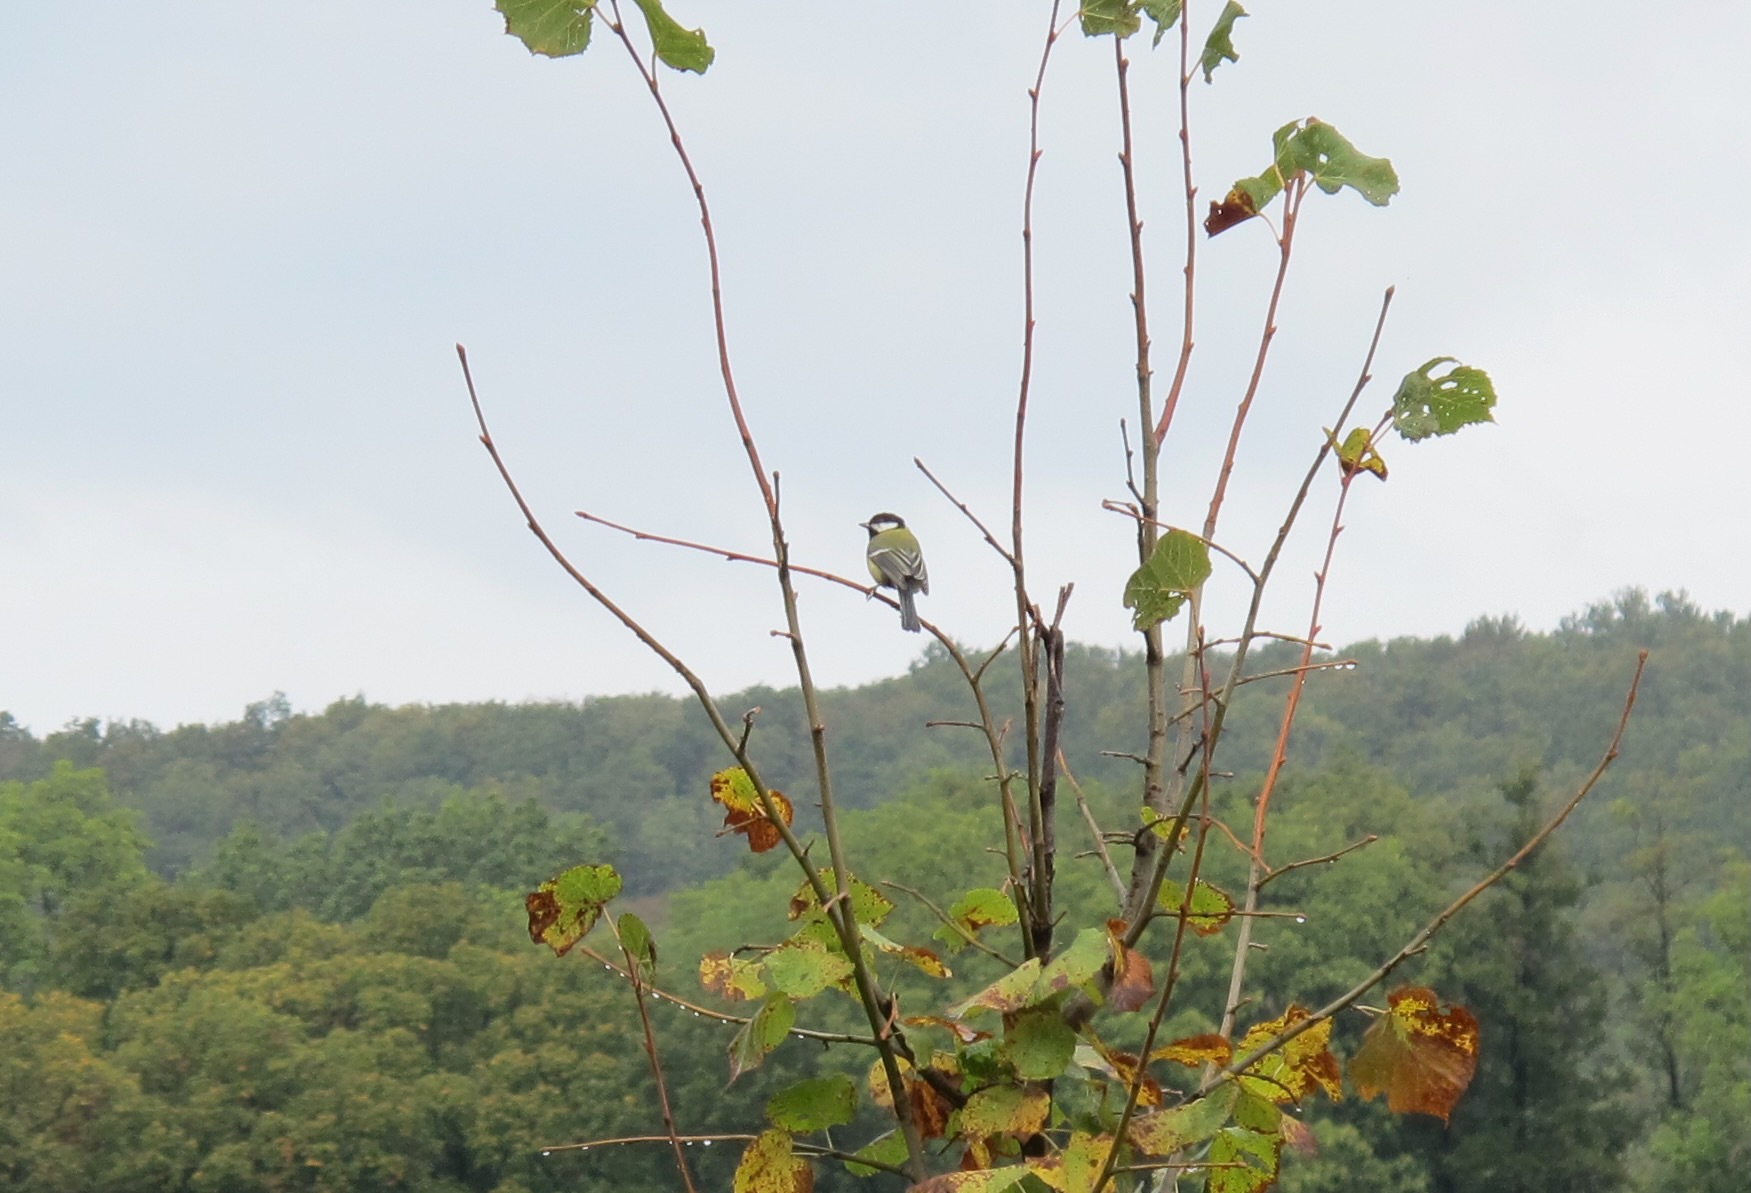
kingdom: Animalia
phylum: Chordata
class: Aves
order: Passeriformes
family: Paridae
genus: Parus
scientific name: Parus major
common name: Great tit
